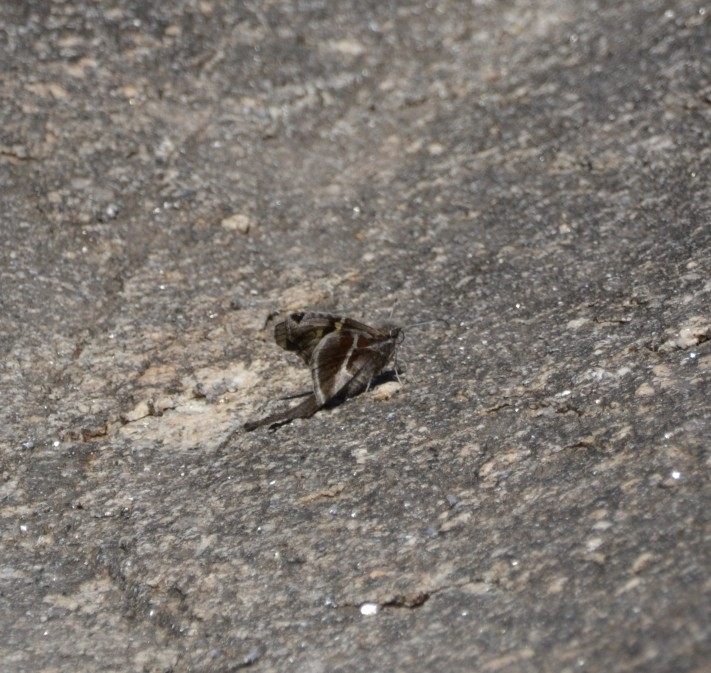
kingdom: Animalia
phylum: Arthropoda
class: Insecta
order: Lepidoptera
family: Hesperiidae
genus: Chioides
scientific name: Chioides catillus
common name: Silverbanded skipper
